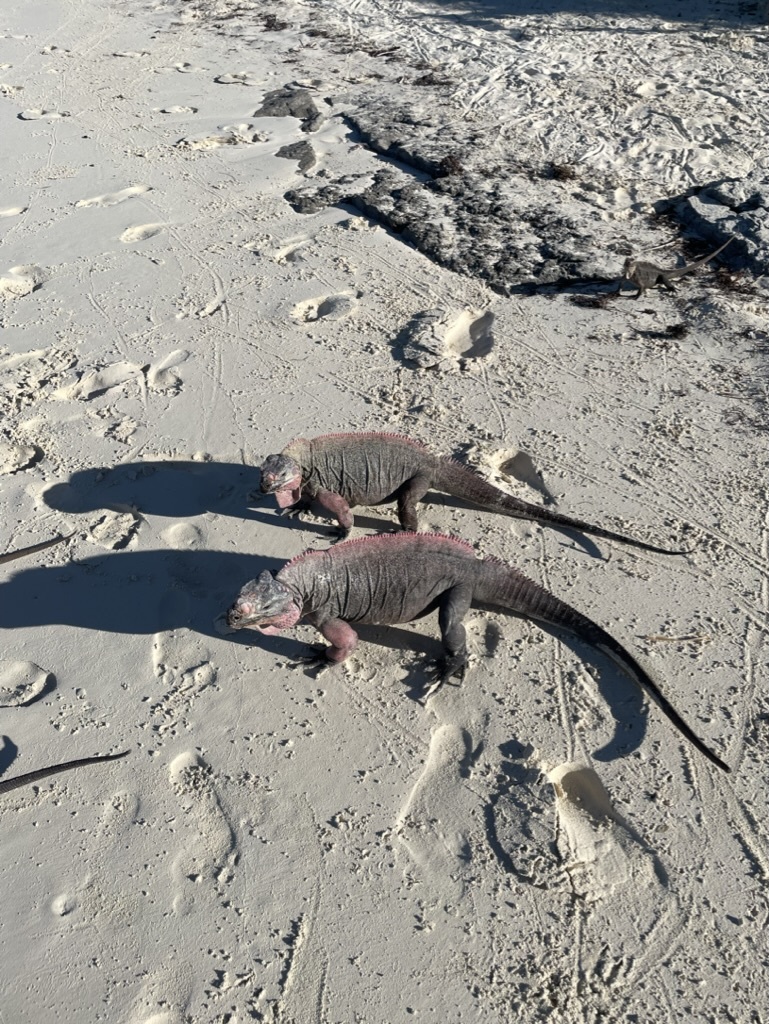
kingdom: Animalia
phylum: Chordata
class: Squamata
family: Iguanidae
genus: Cyclura
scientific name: Cyclura cychlura
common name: Northern bahamian rock iguana
